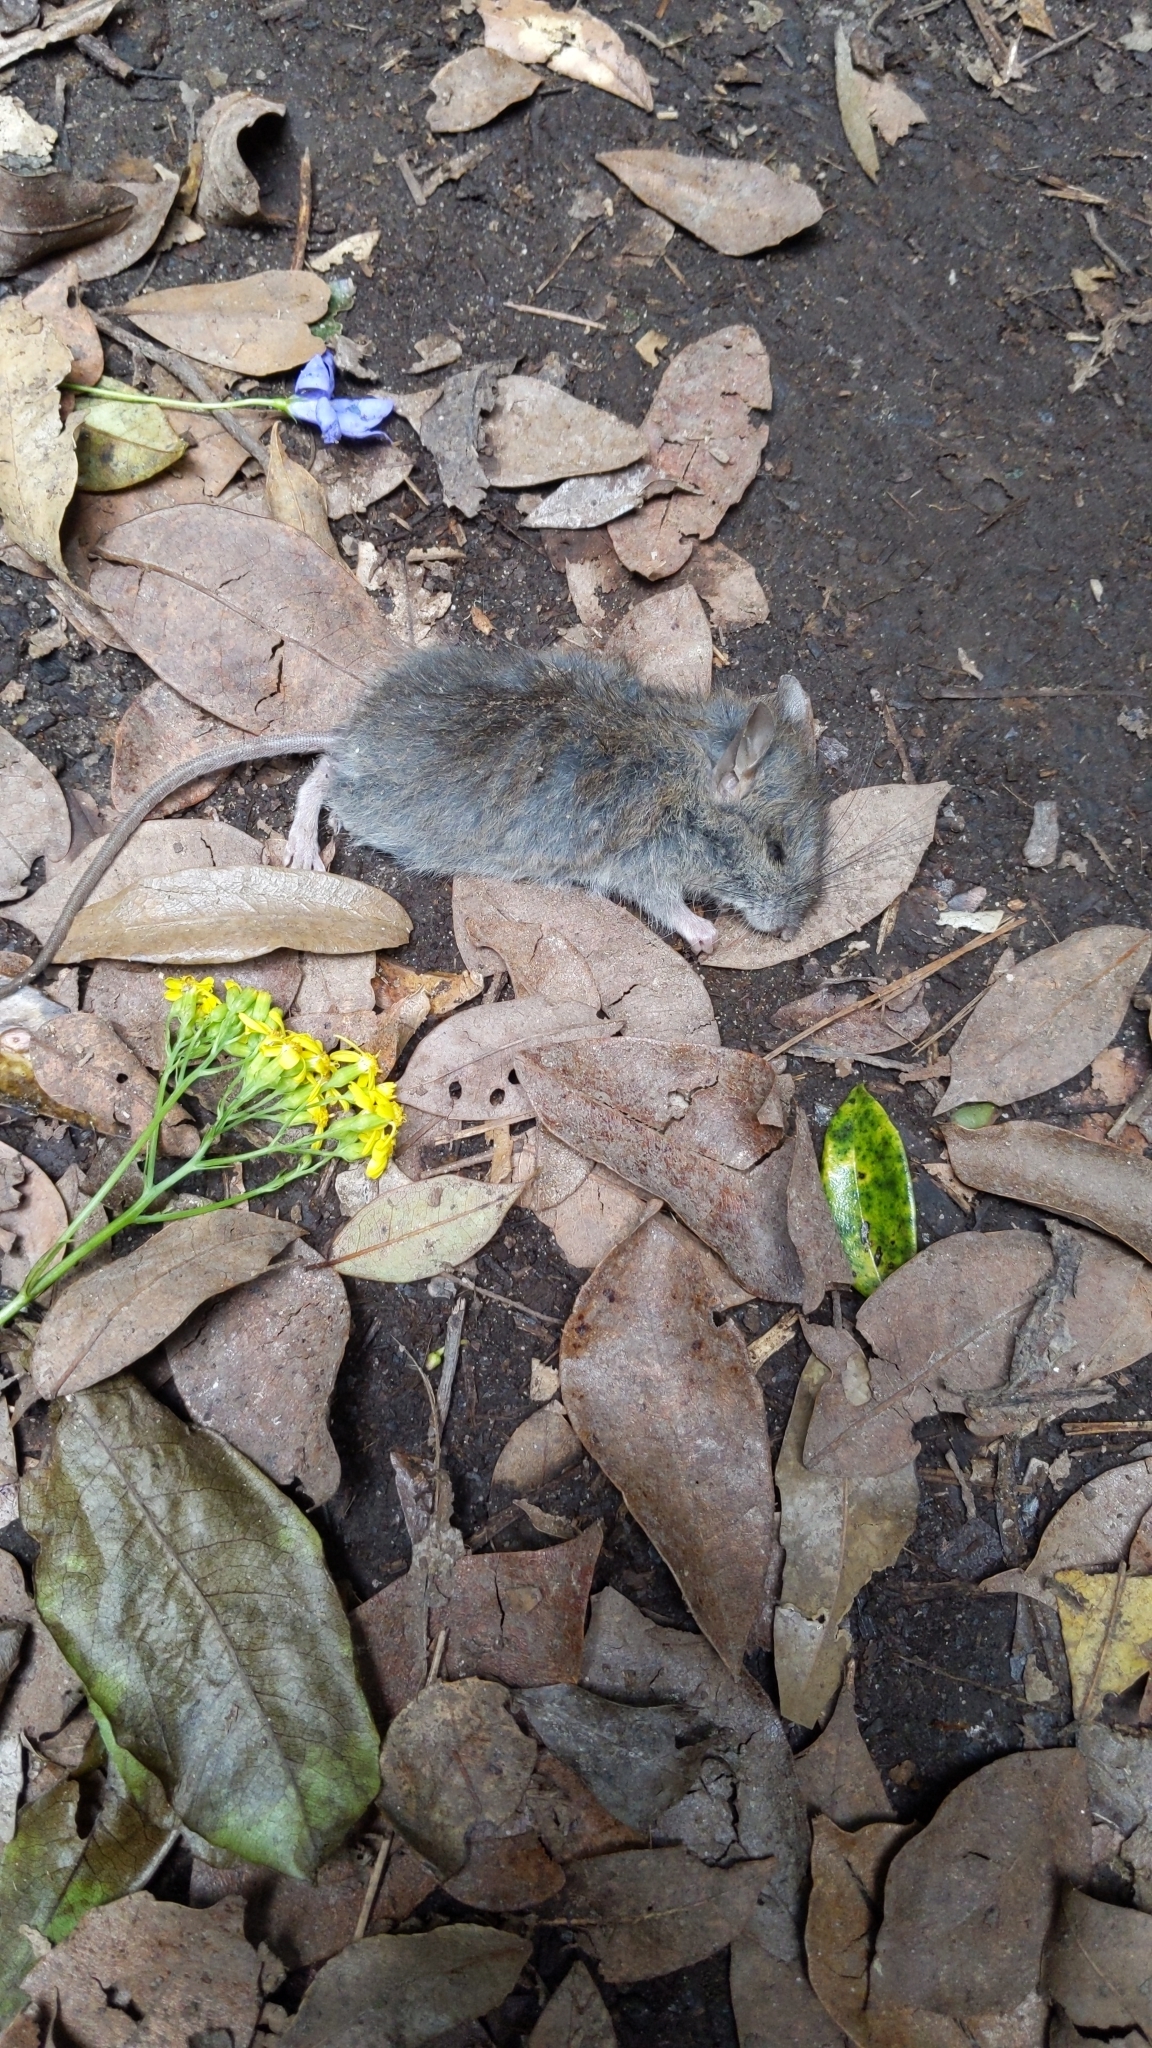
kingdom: Animalia
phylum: Chordata
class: Mammalia
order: Rodentia
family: Muridae
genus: Rattus
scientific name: Rattus fuscipes
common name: Australian bush rat
